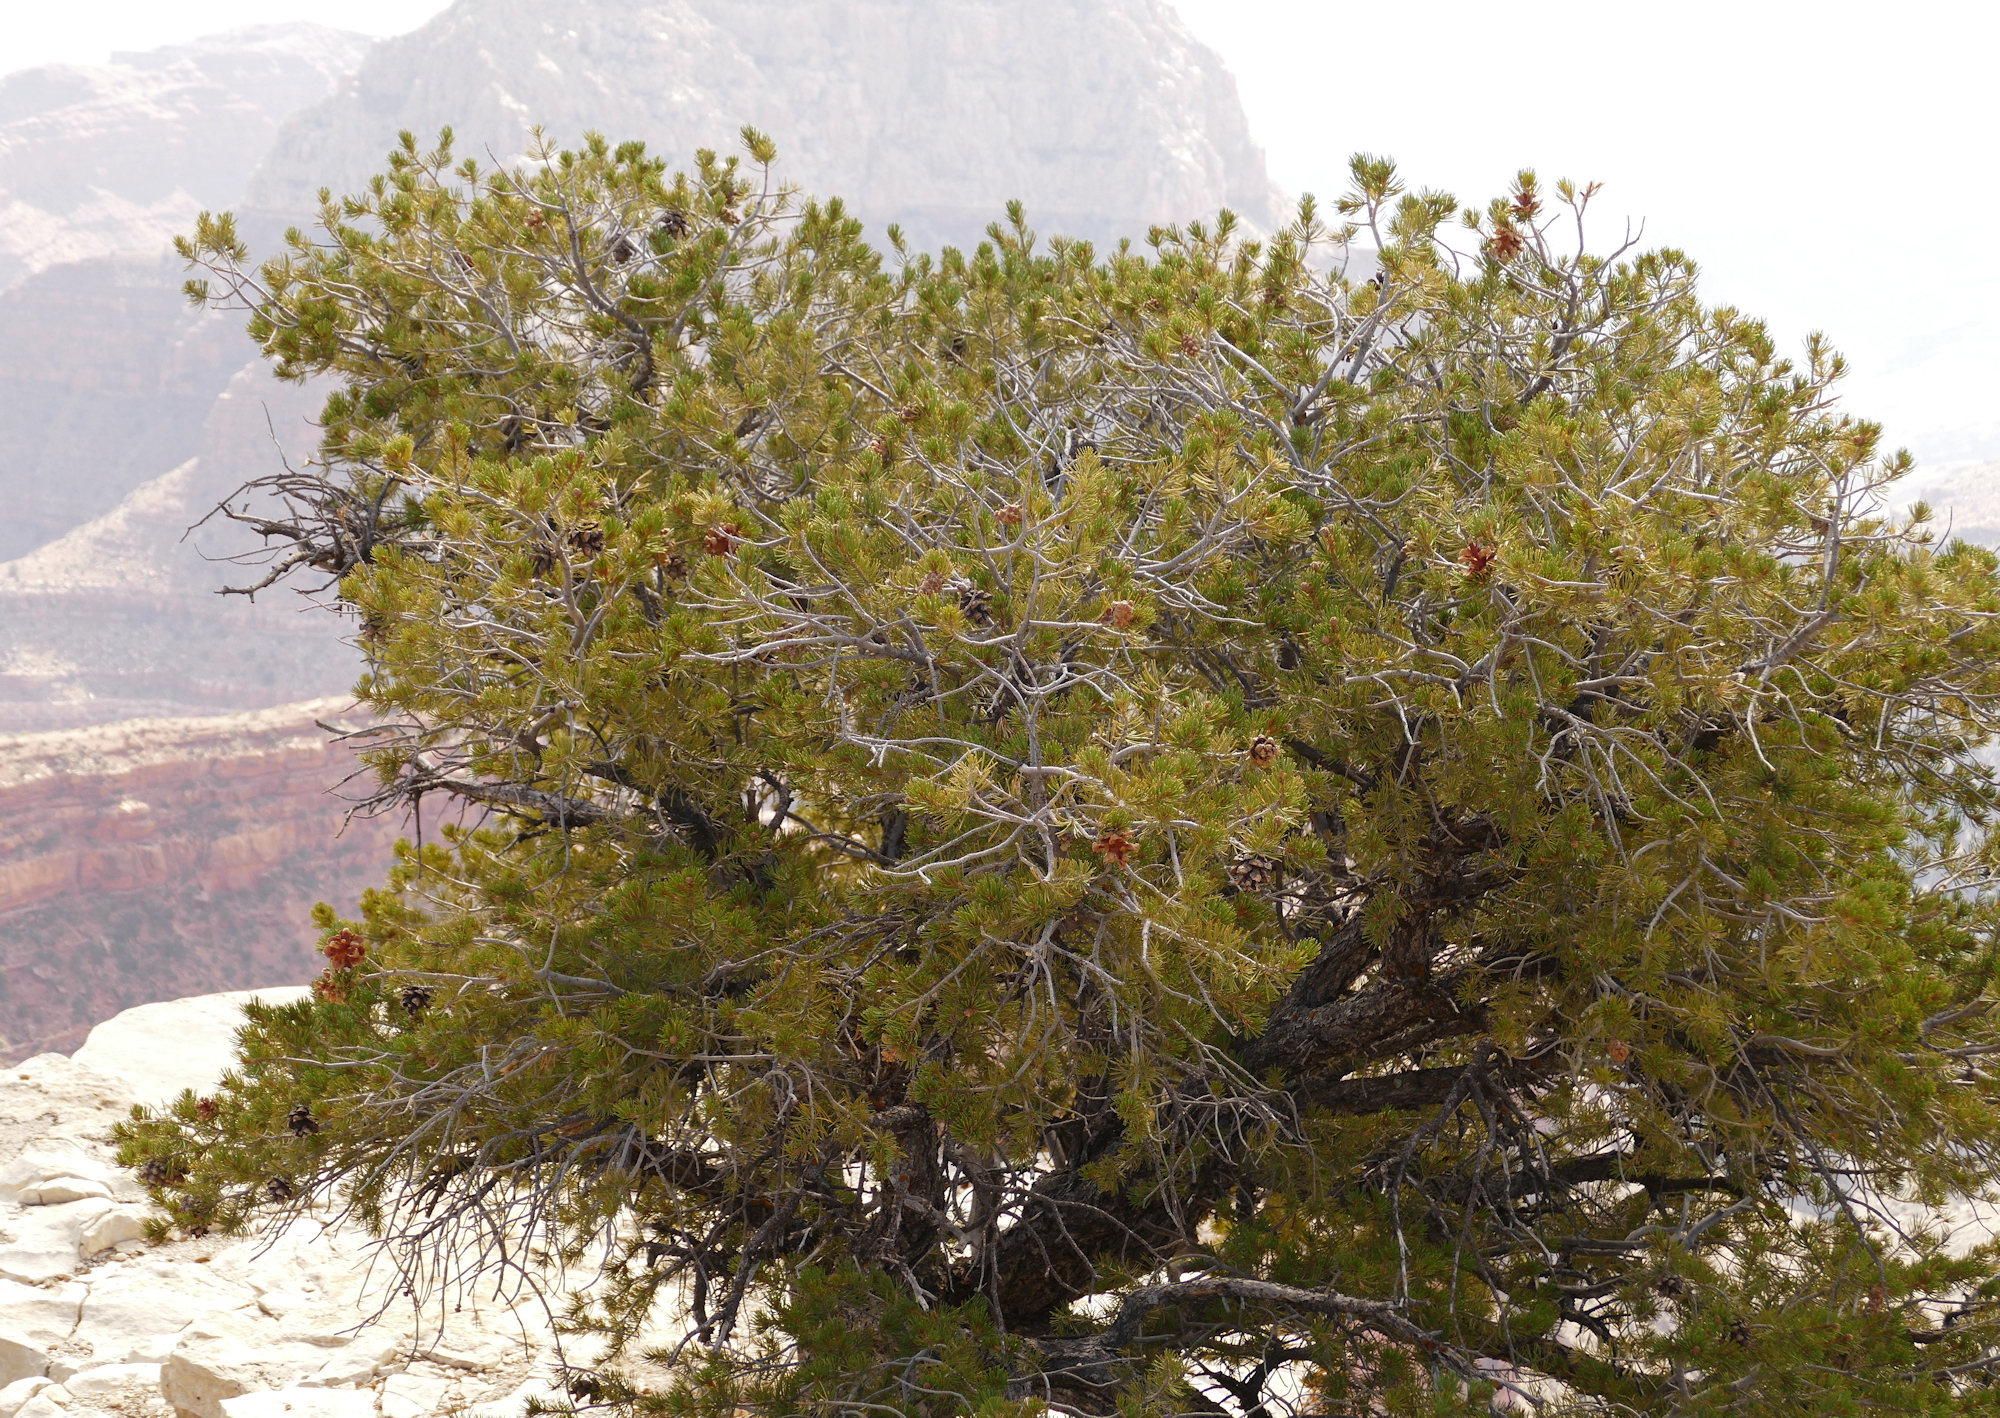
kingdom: Plantae
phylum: Tracheophyta
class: Pinopsida
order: Pinales
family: Pinaceae
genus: Pinus
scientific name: Pinus edulis
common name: Colorado pinyon
